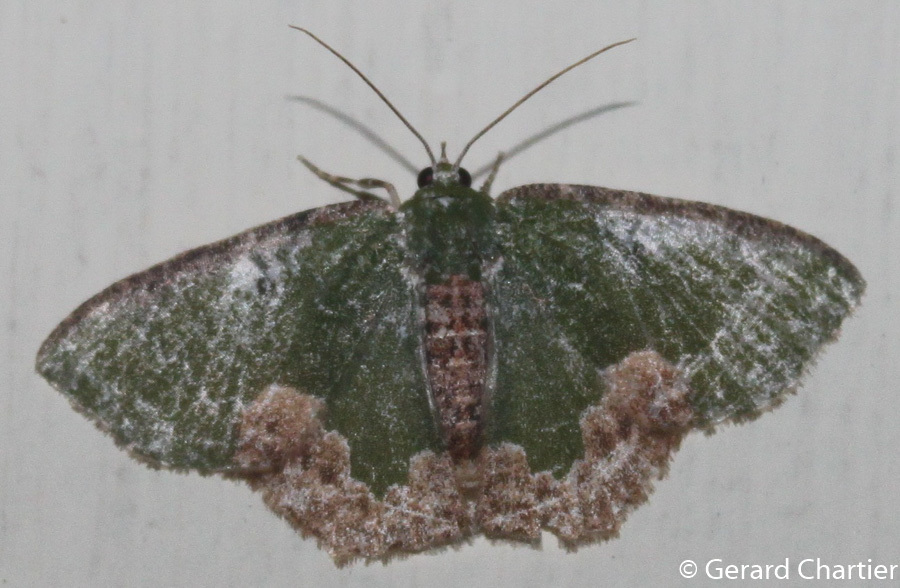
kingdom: Animalia
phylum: Arthropoda
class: Insecta
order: Lepidoptera
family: Geometridae
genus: Eucyclodes
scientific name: Eucyclodes albisparsa
